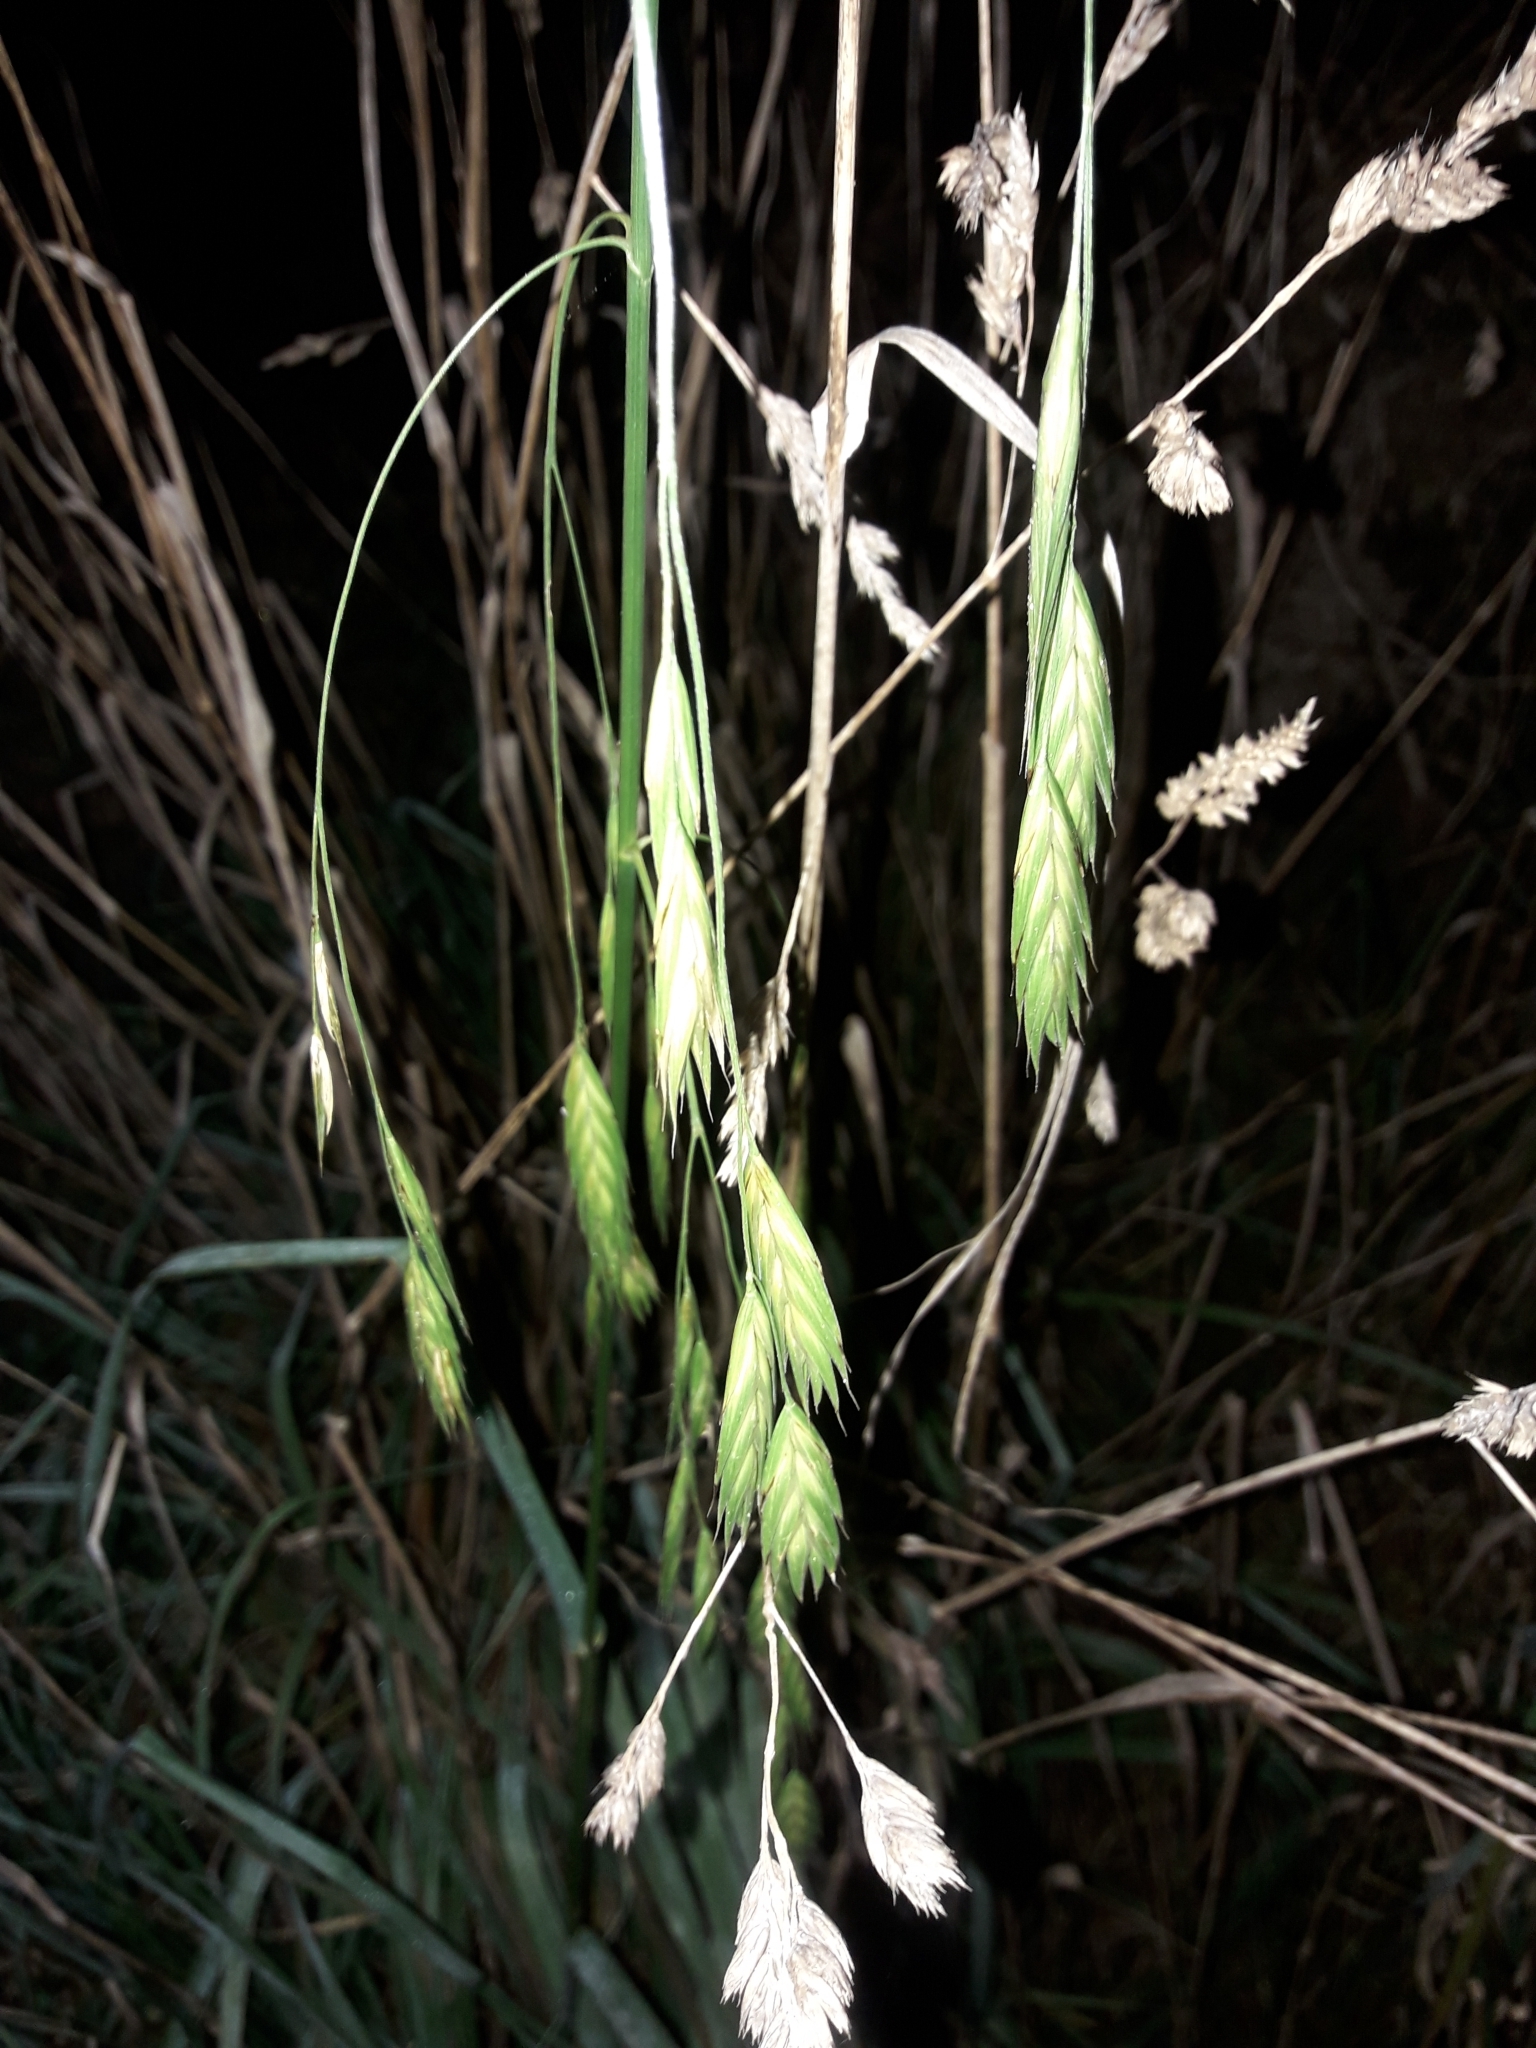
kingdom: Plantae
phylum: Tracheophyta
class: Liliopsida
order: Poales
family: Poaceae
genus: Bromus
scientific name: Bromus catharticus
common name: Rescuegrass
